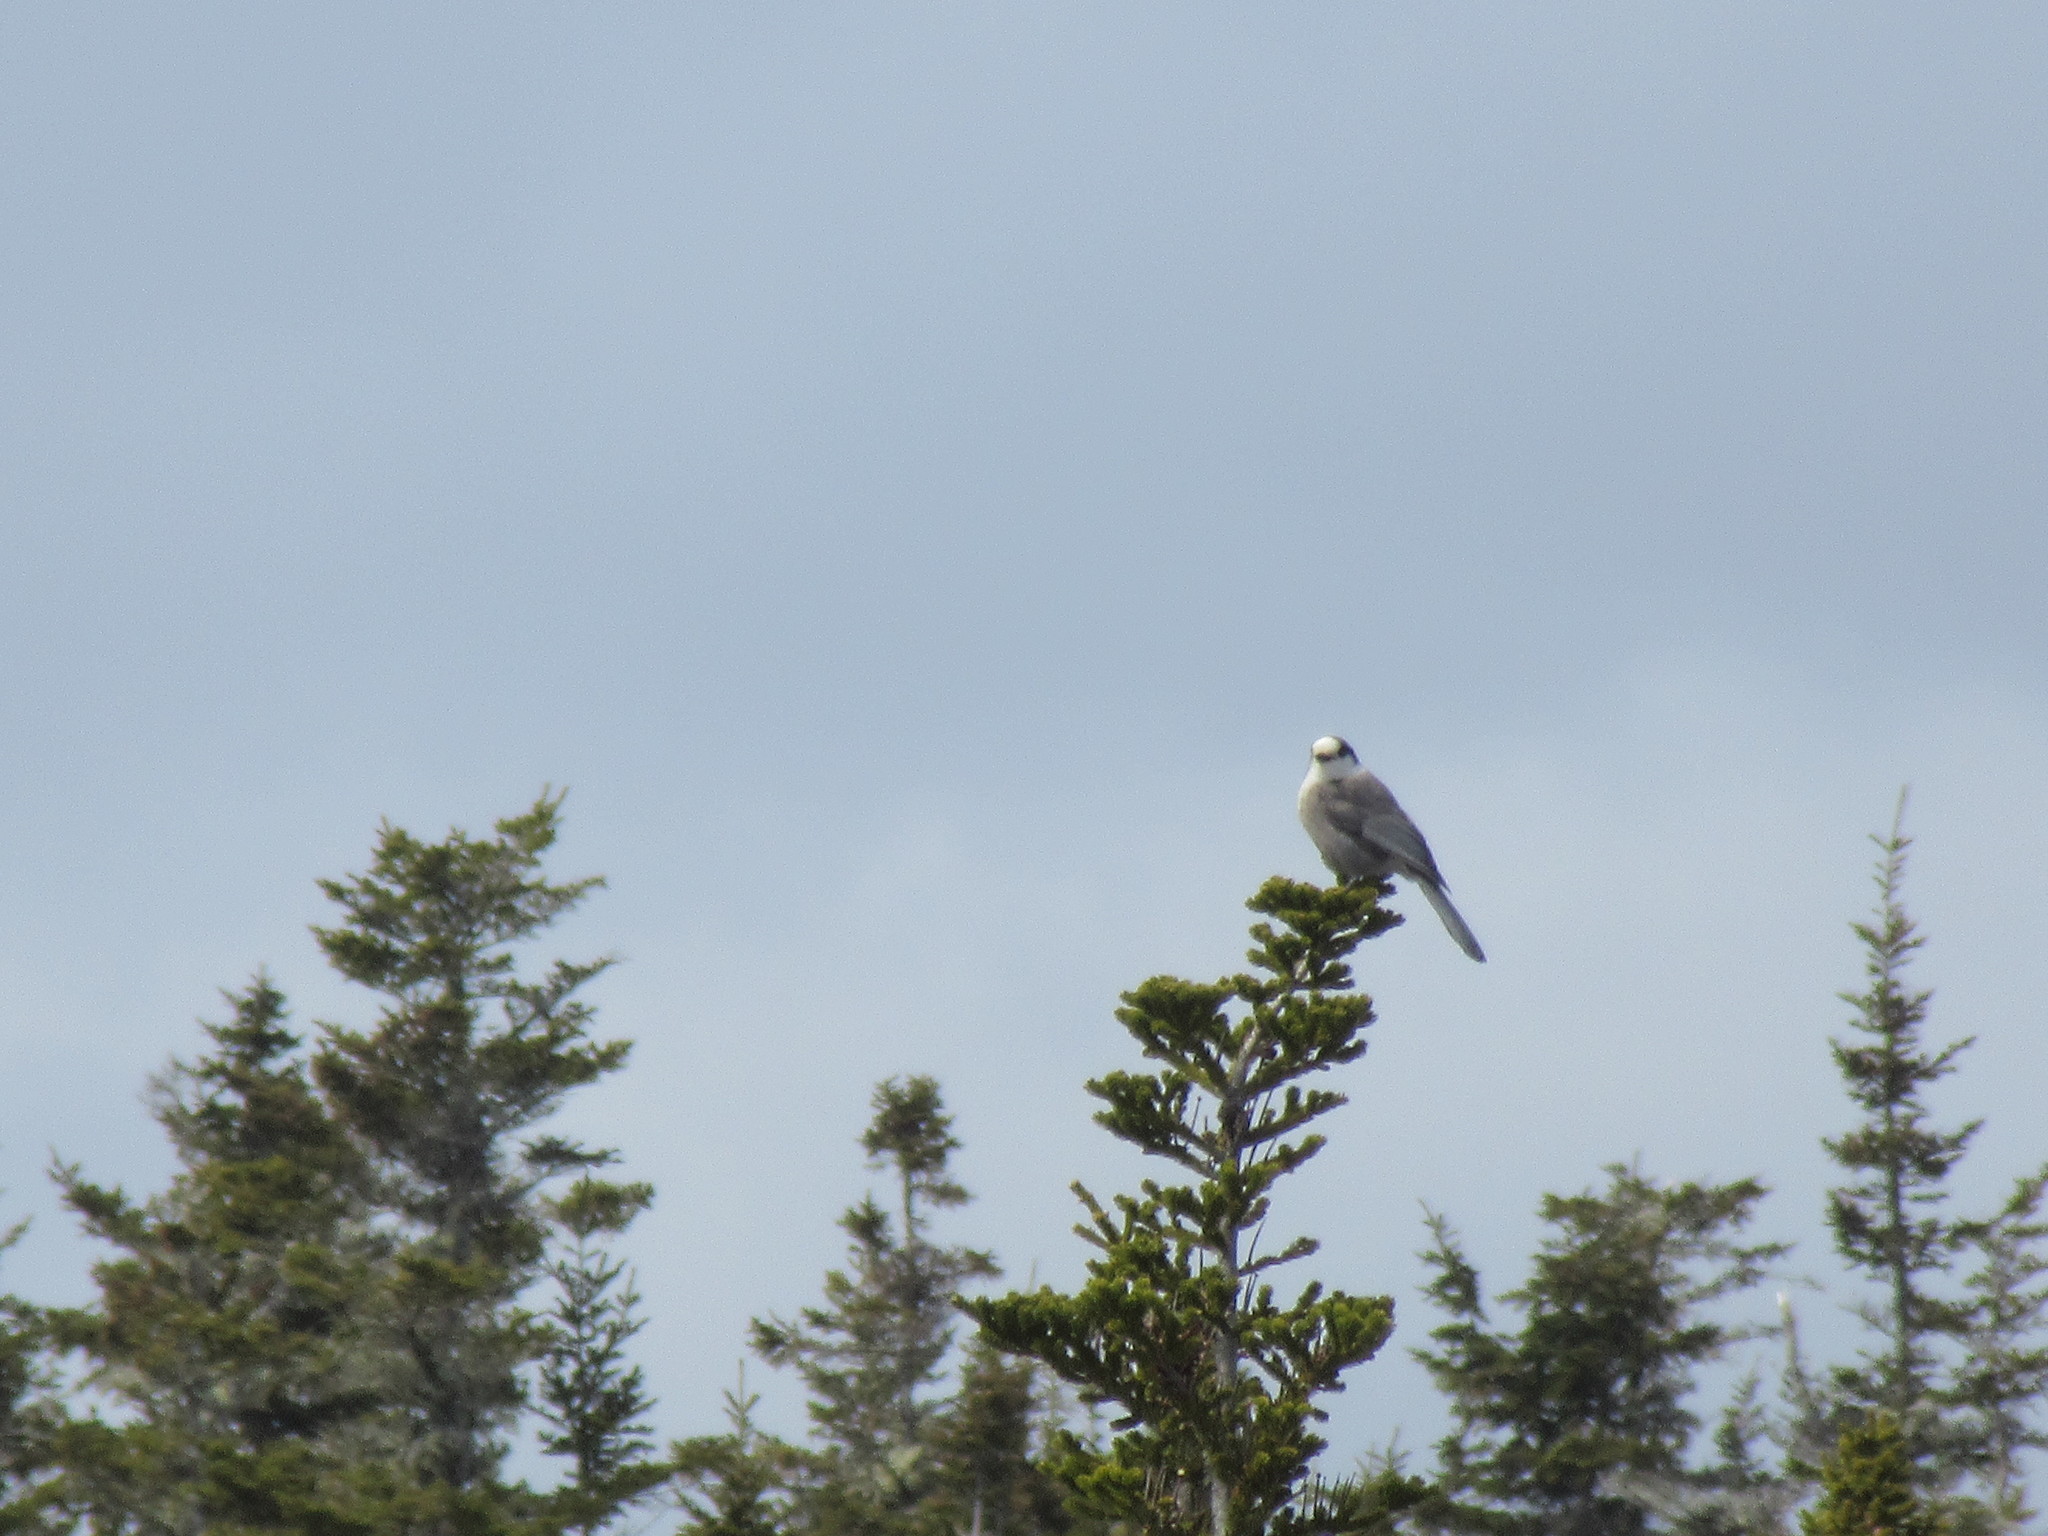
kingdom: Animalia
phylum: Chordata
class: Aves
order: Passeriformes
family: Corvidae
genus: Perisoreus
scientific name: Perisoreus canadensis
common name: Gray jay
